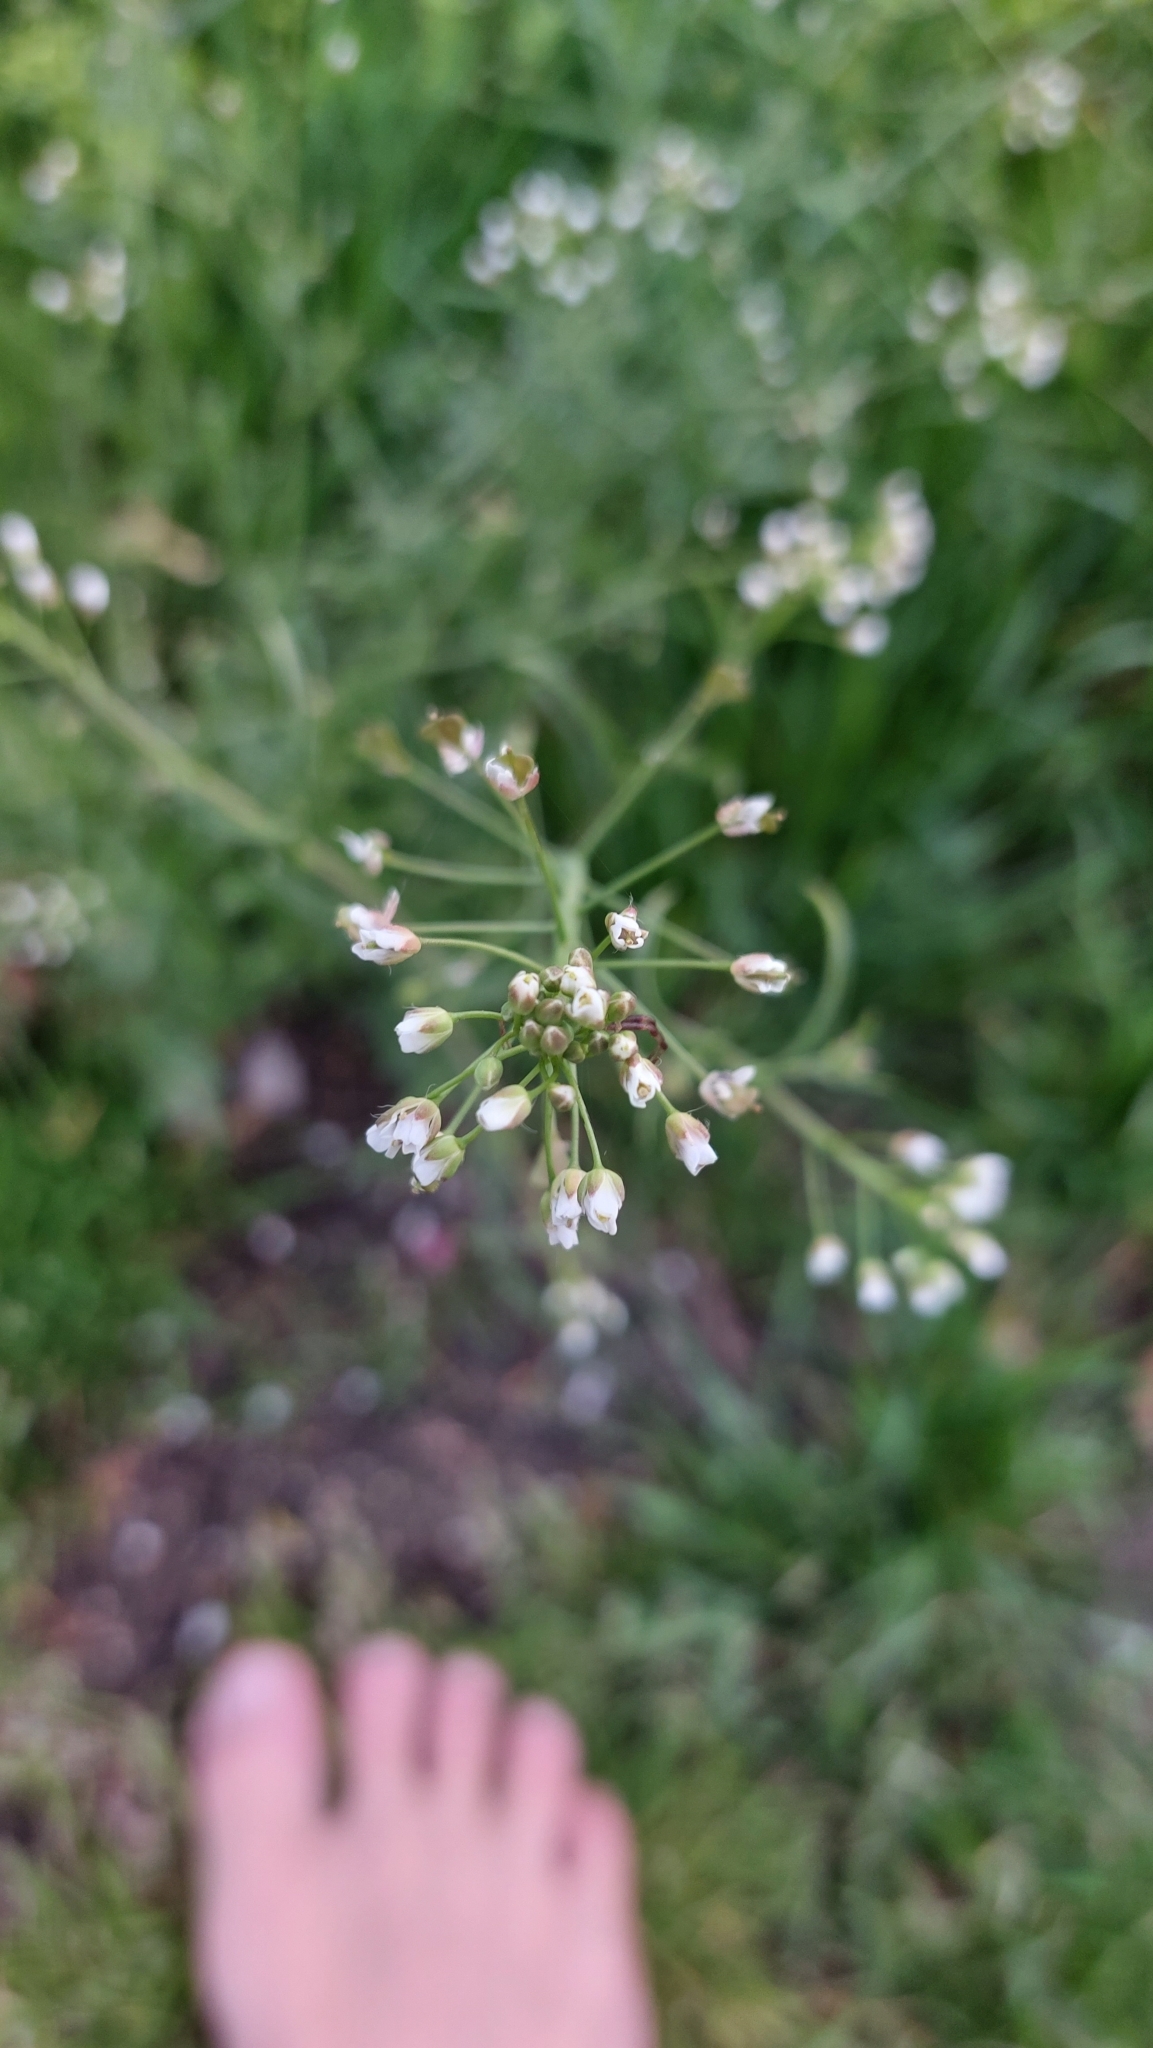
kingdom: Plantae
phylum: Tracheophyta
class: Magnoliopsida
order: Brassicales
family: Brassicaceae
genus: Capsella
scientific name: Capsella bursa-pastoris
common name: Shepherd's purse
